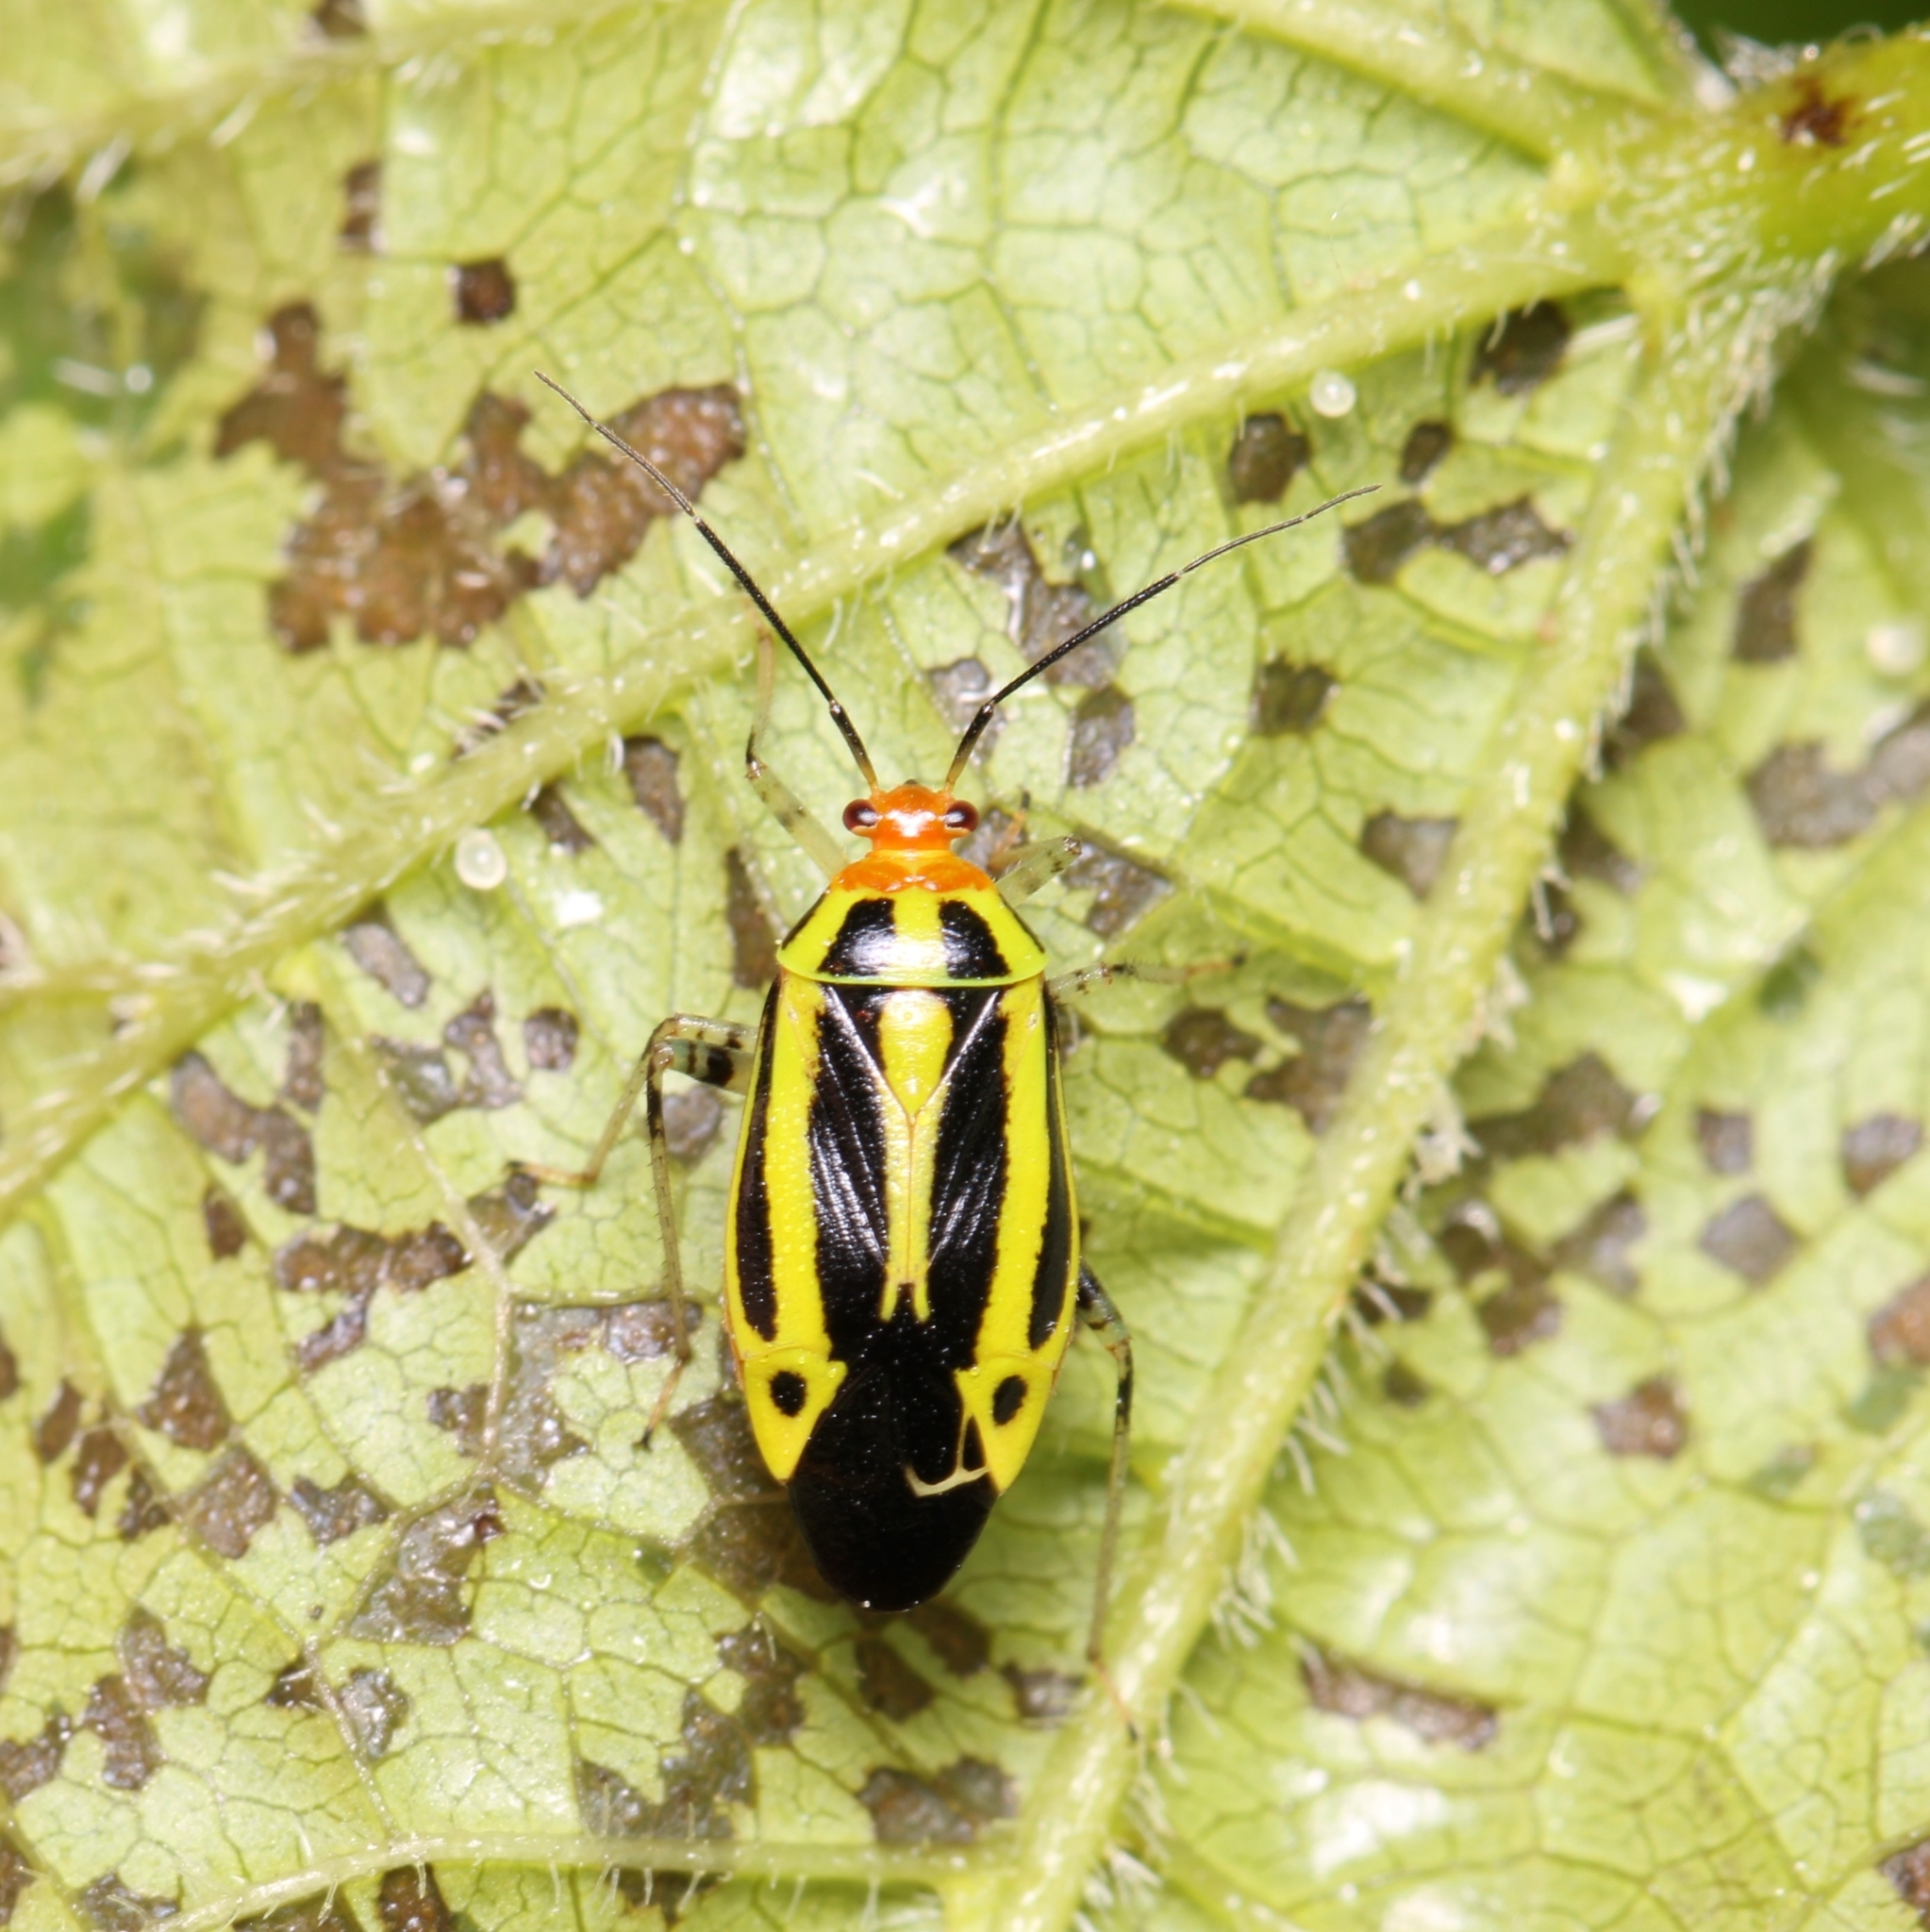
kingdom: Animalia
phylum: Arthropoda
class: Insecta
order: Hemiptera
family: Miridae
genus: Poecilocapsus
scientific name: Poecilocapsus lineatus
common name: Four-lined plant bug
